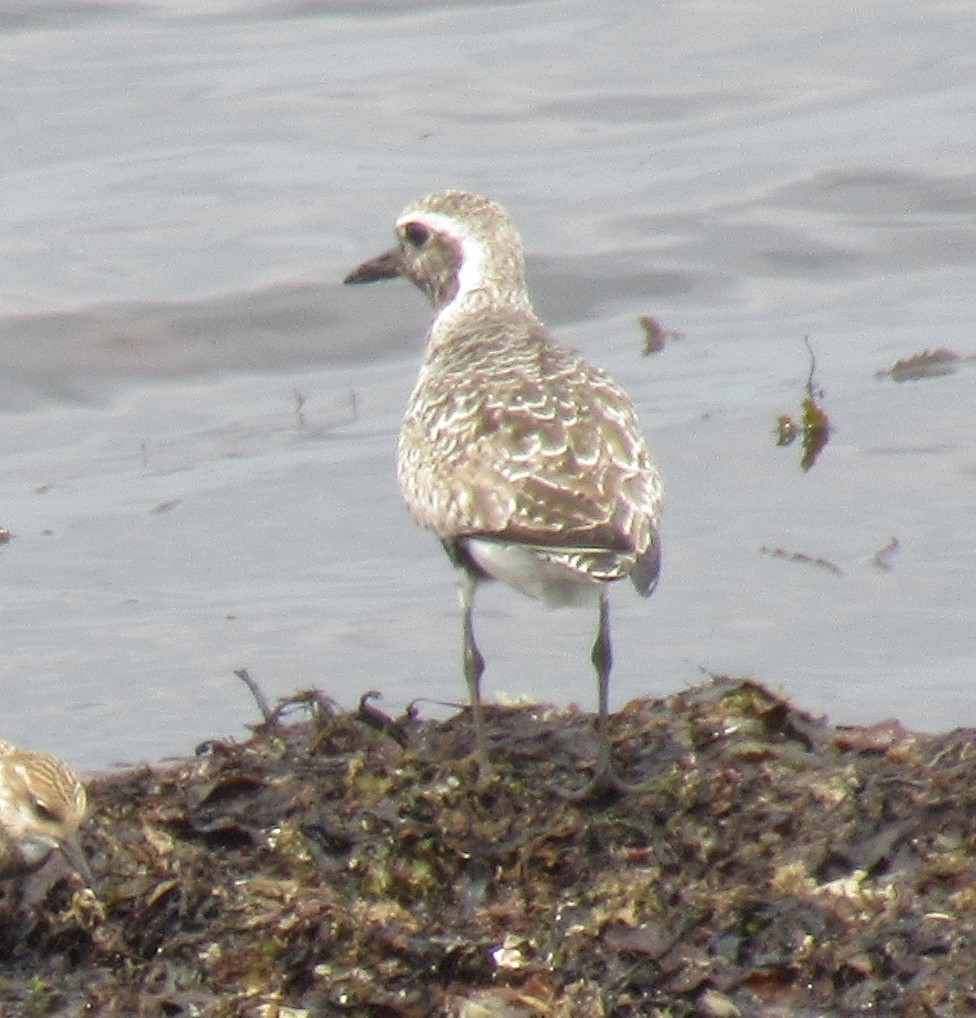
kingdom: Animalia
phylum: Chordata
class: Aves
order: Charadriiformes
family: Charadriidae
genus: Pluvialis
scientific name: Pluvialis squatarola
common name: Grey plover
